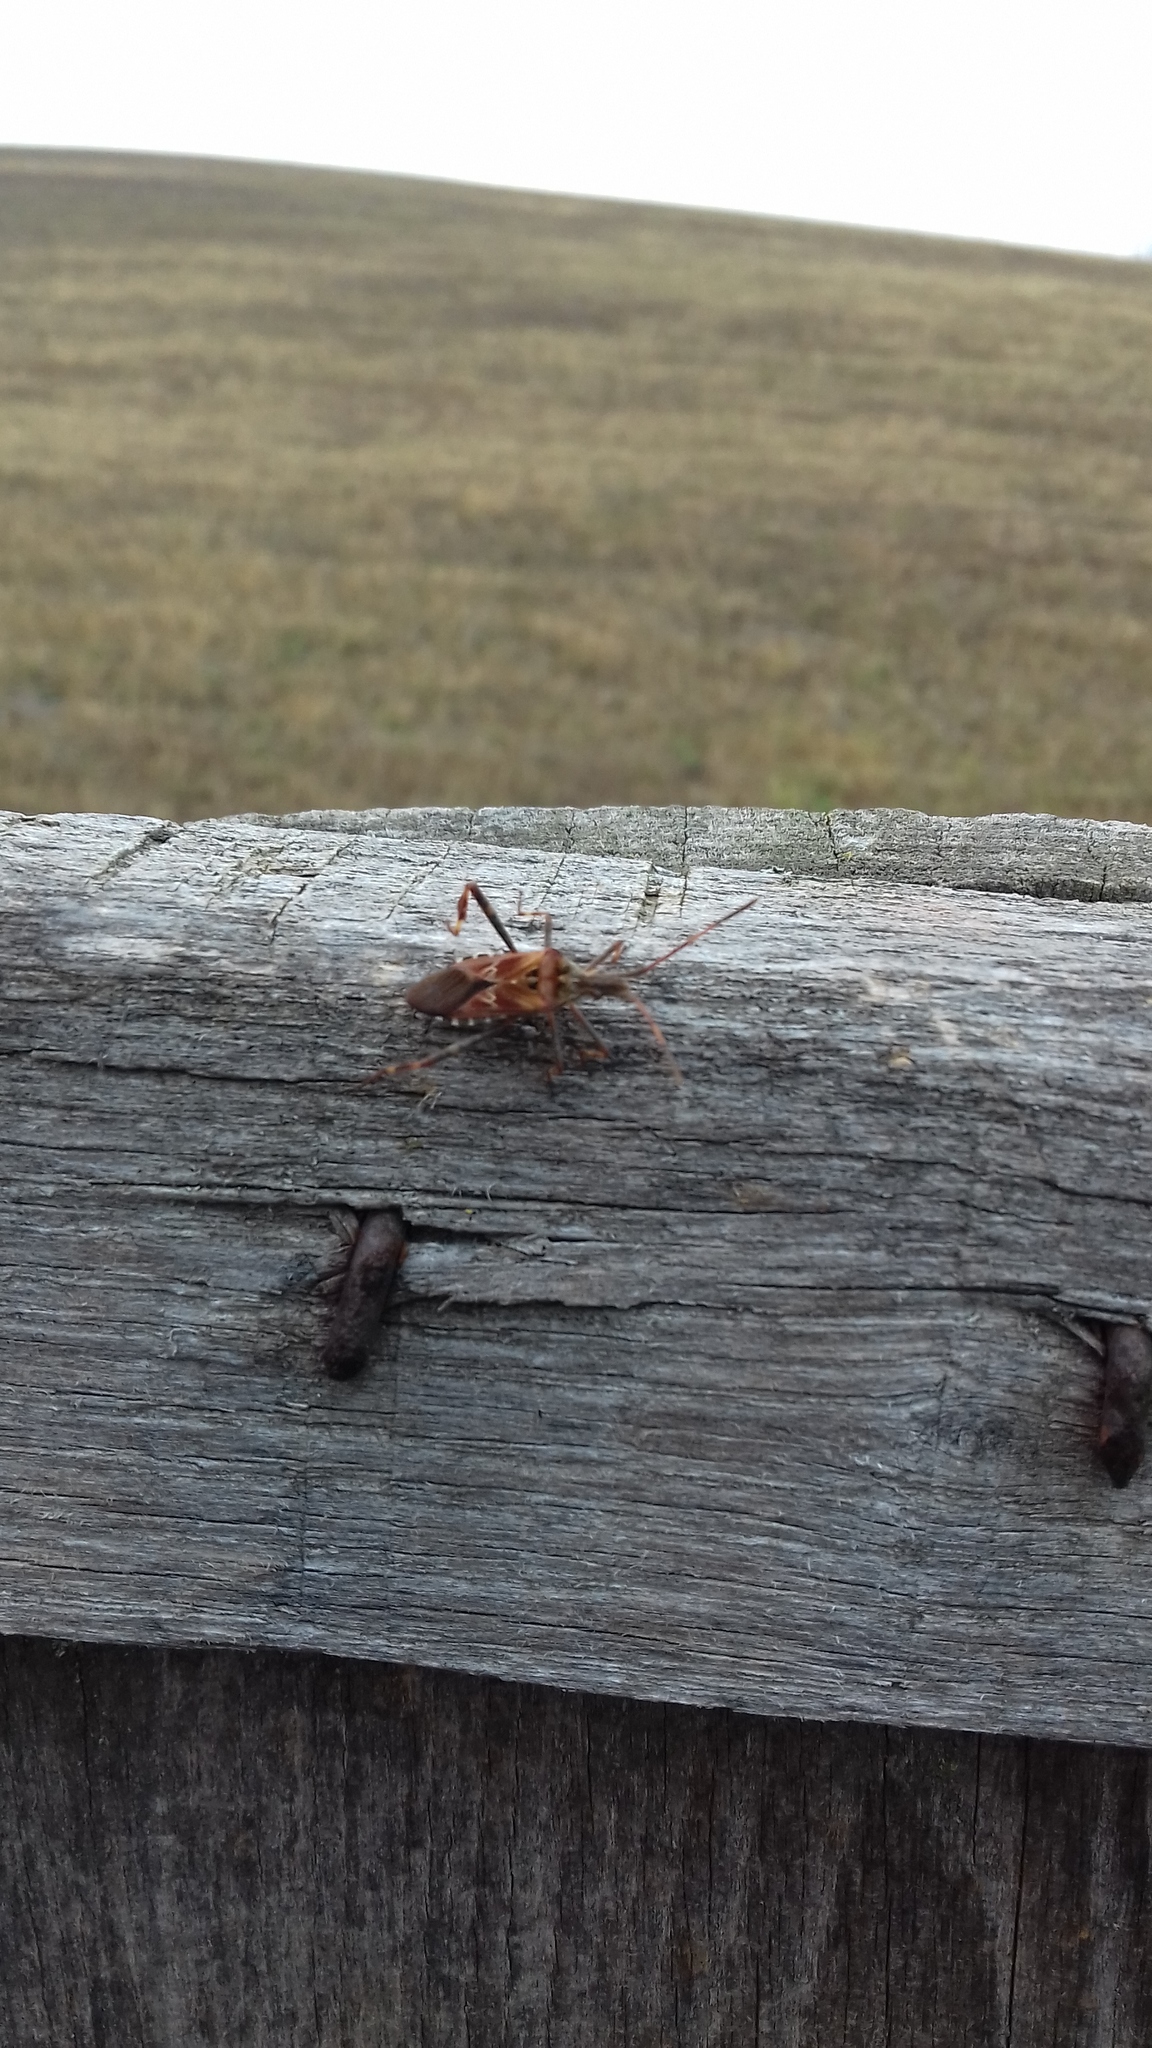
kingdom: Animalia
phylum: Arthropoda
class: Insecta
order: Hemiptera
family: Coreidae
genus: Leptoglossus
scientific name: Leptoglossus occidentalis
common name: Western conifer-seed bug
